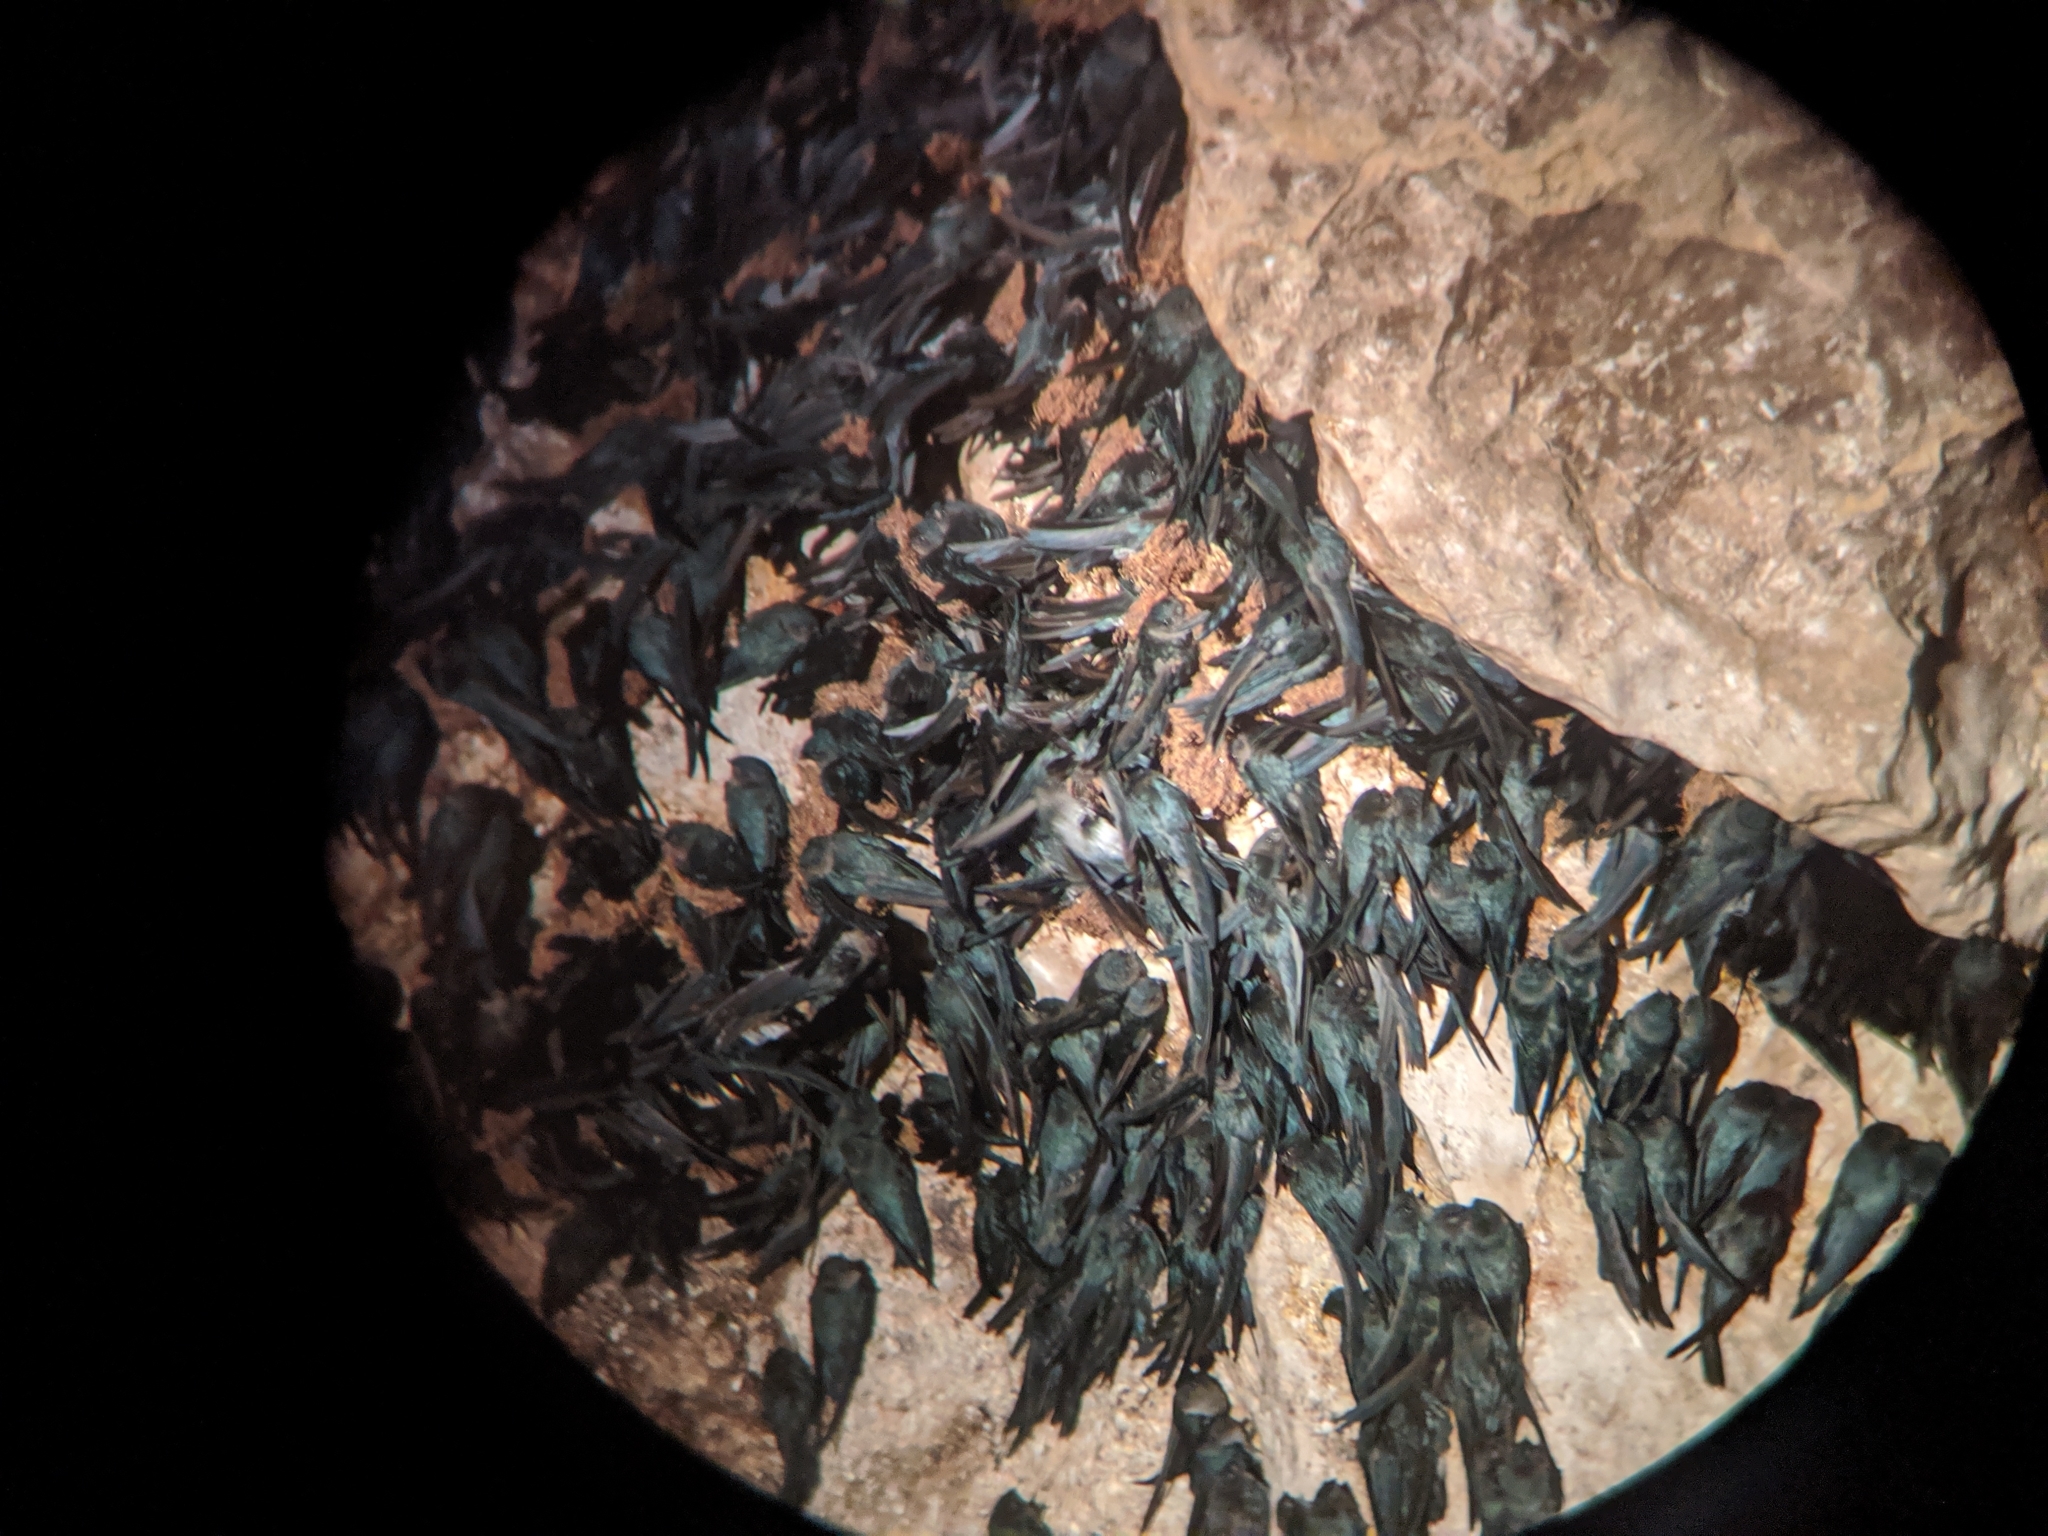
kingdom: Animalia
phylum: Chordata
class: Aves
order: Apodiformes
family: Apodidae
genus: Collocalia
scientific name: Collocalia affinis
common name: Plume-toed swiftlet
